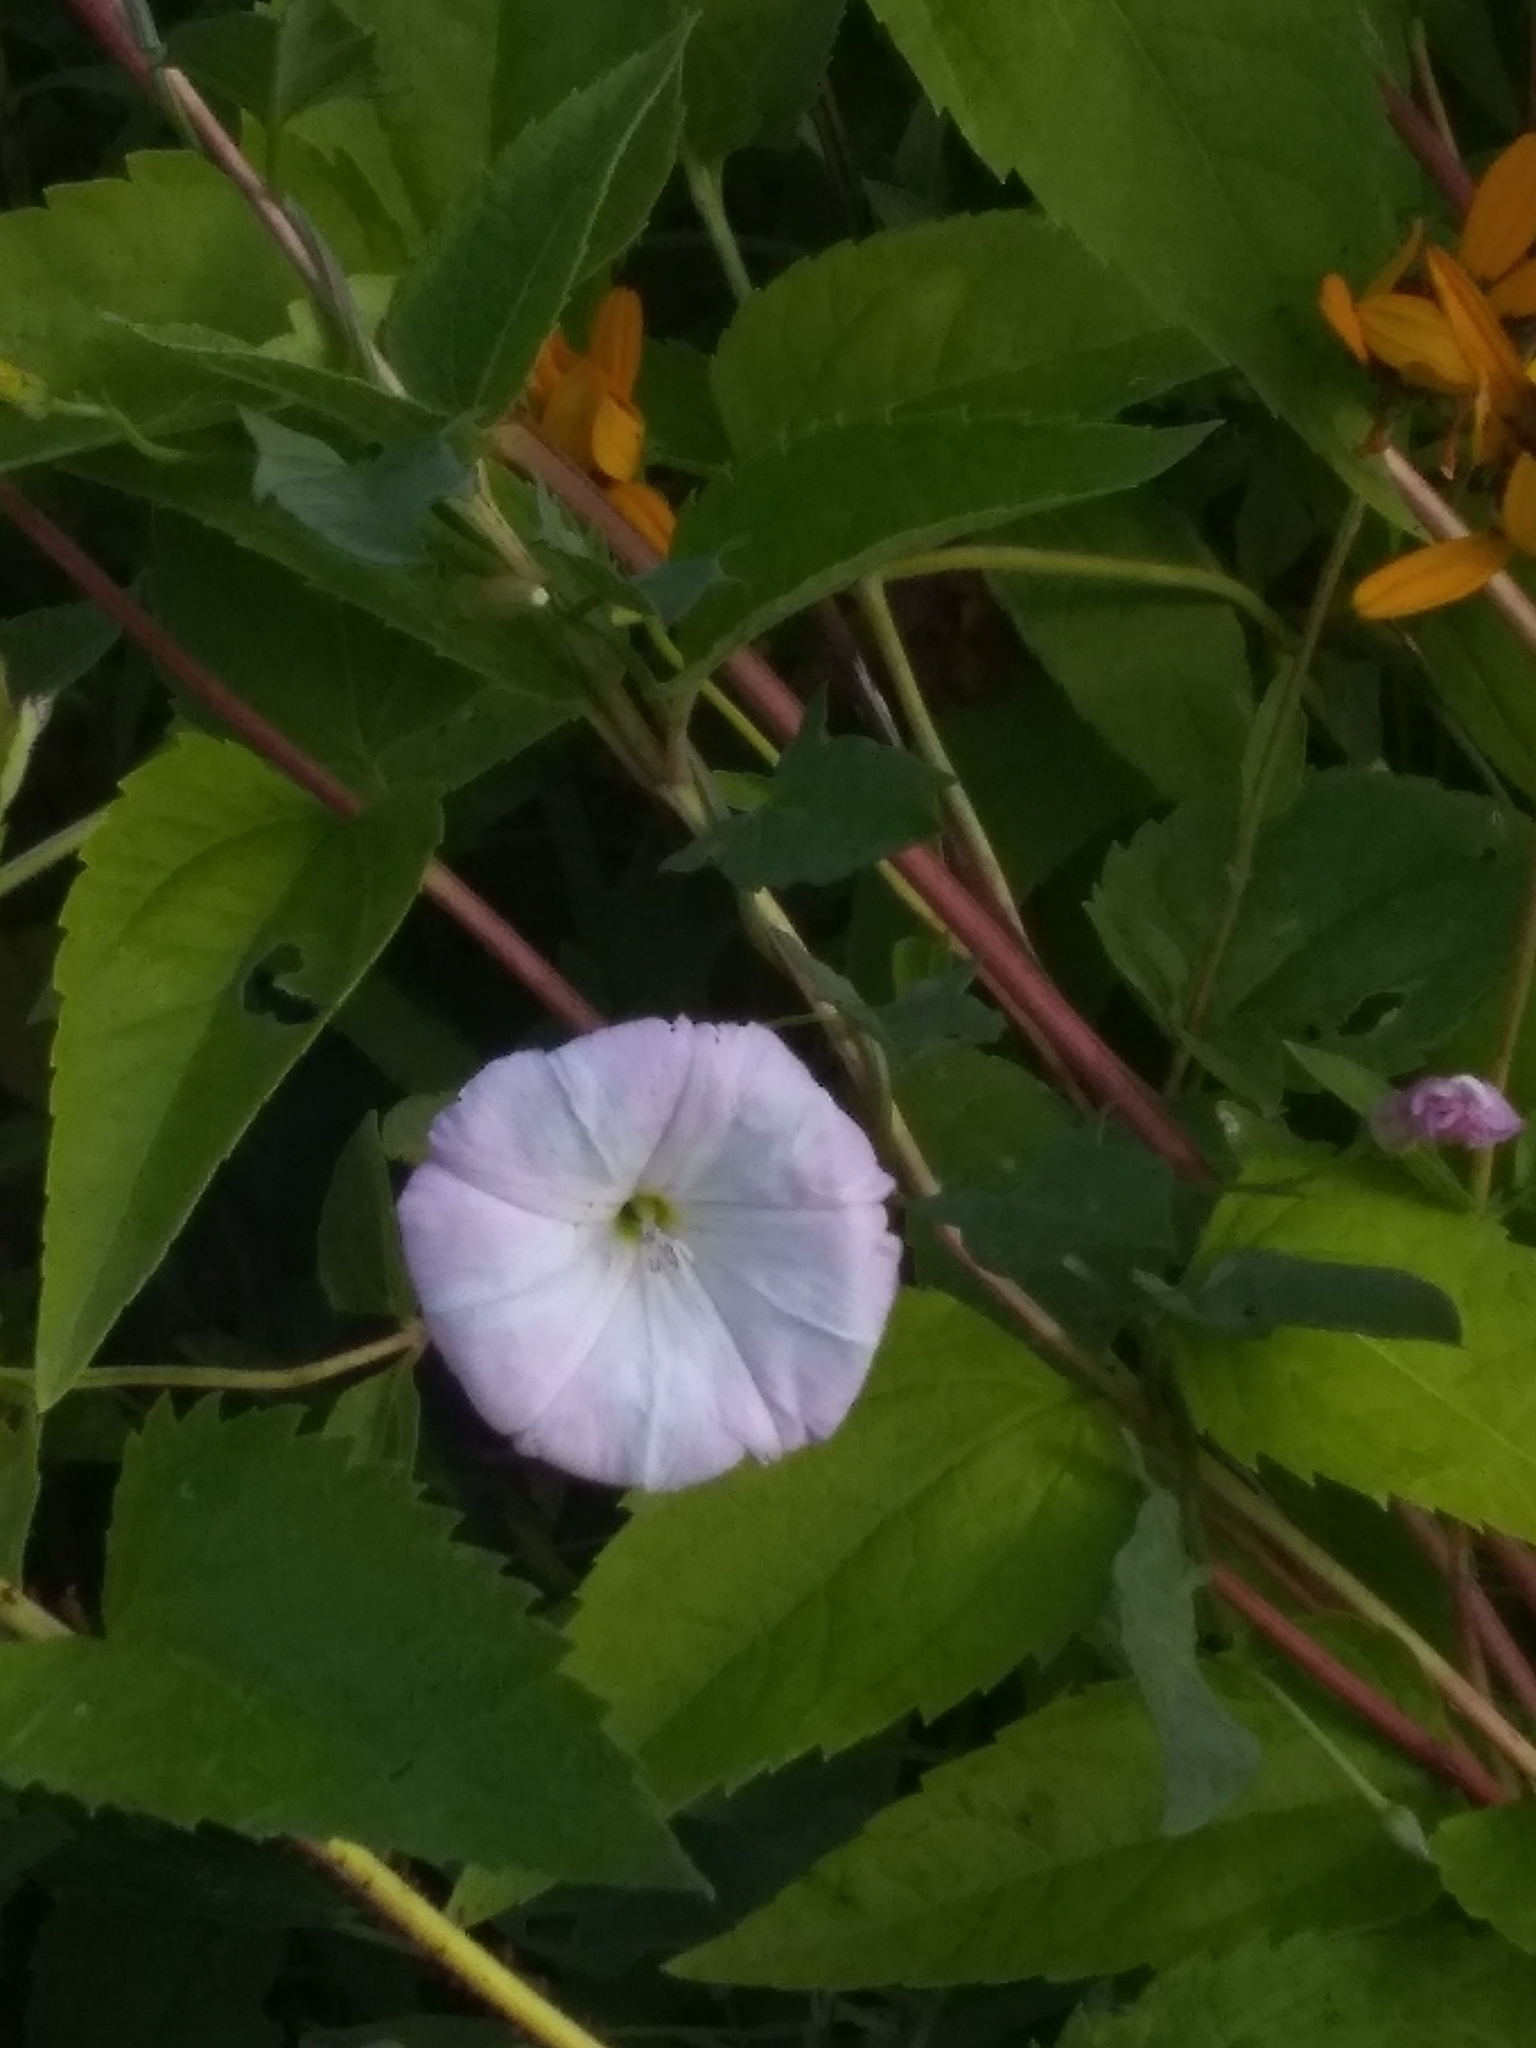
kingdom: Plantae
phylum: Tracheophyta
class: Magnoliopsida
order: Solanales
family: Convolvulaceae
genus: Convolvulus
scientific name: Convolvulus arvensis
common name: Field bindweed
